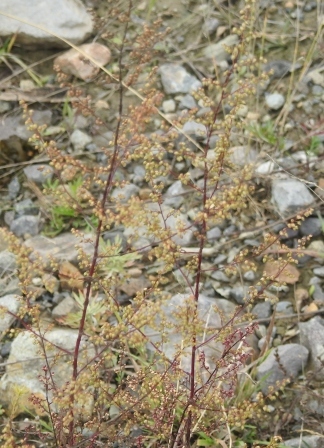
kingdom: Plantae
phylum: Tracheophyta
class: Magnoliopsida
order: Asterales
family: Asteraceae
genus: Artemisia
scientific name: Artemisia scoparia
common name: Redstem wormwood
